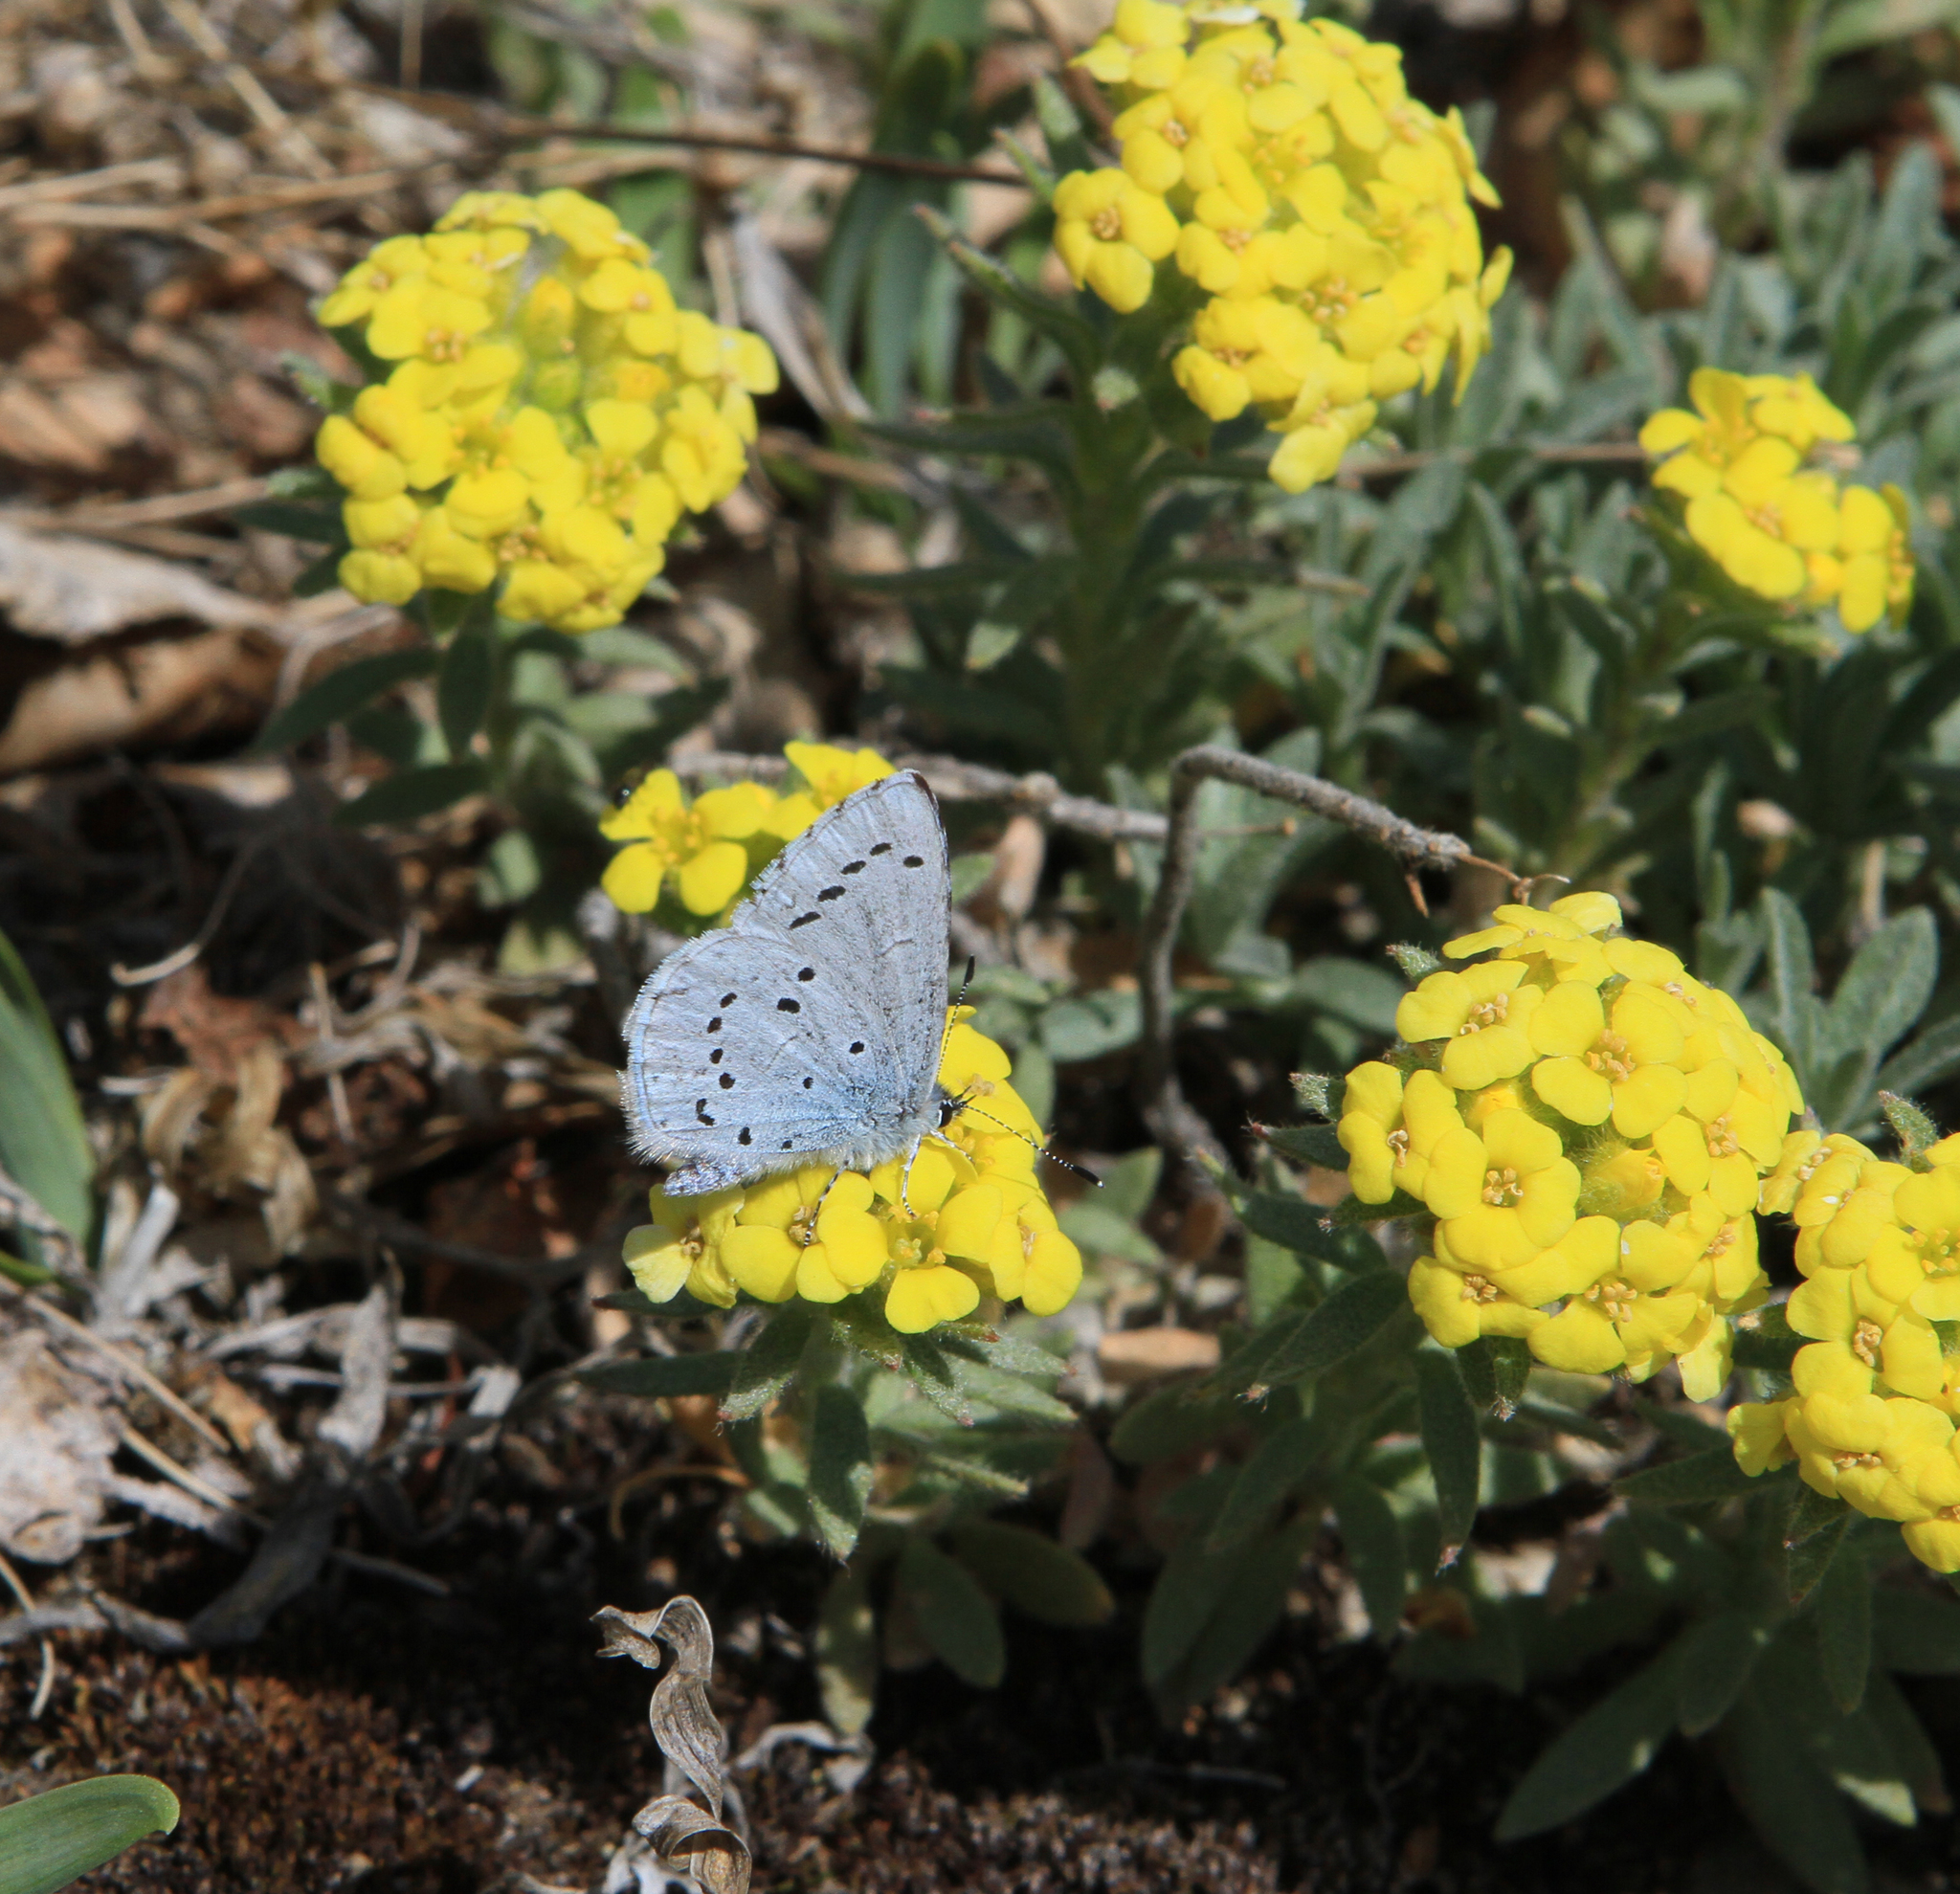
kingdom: Plantae
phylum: Tracheophyta
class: Magnoliopsida
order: Brassicales
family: Brassicaceae
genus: Alyssum
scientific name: Alyssum lenense
